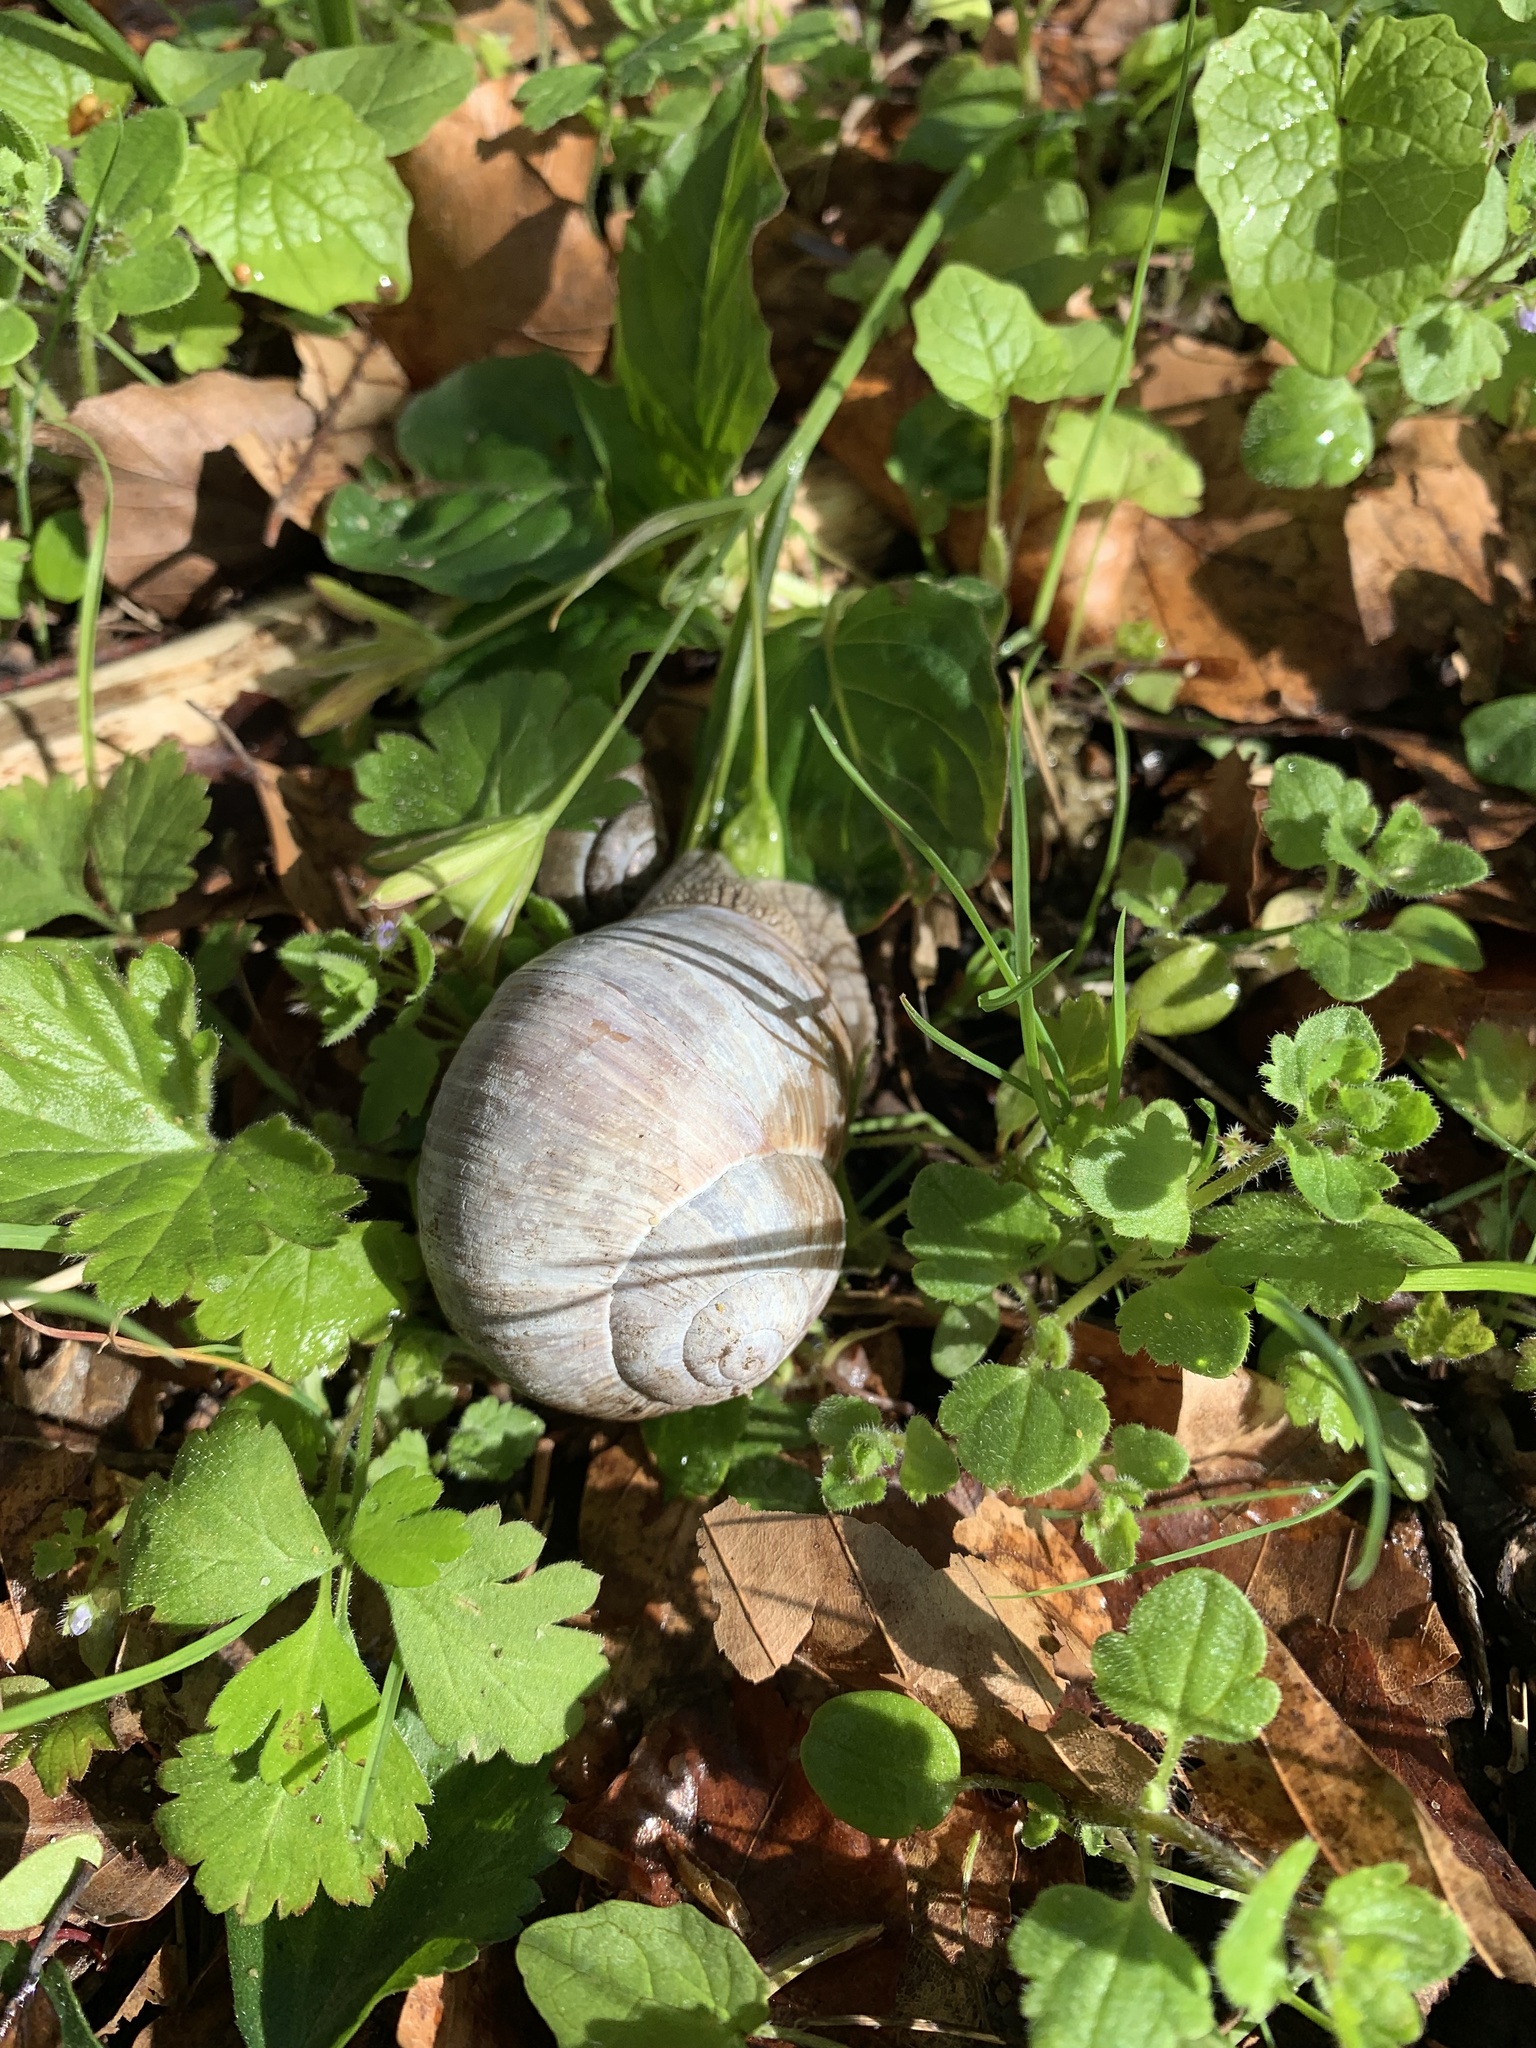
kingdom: Animalia
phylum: Mollusca
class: Gastropoda
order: Stylommatophora
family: Helicidae
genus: Helix
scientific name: Helix pomatia
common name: Roman snail
